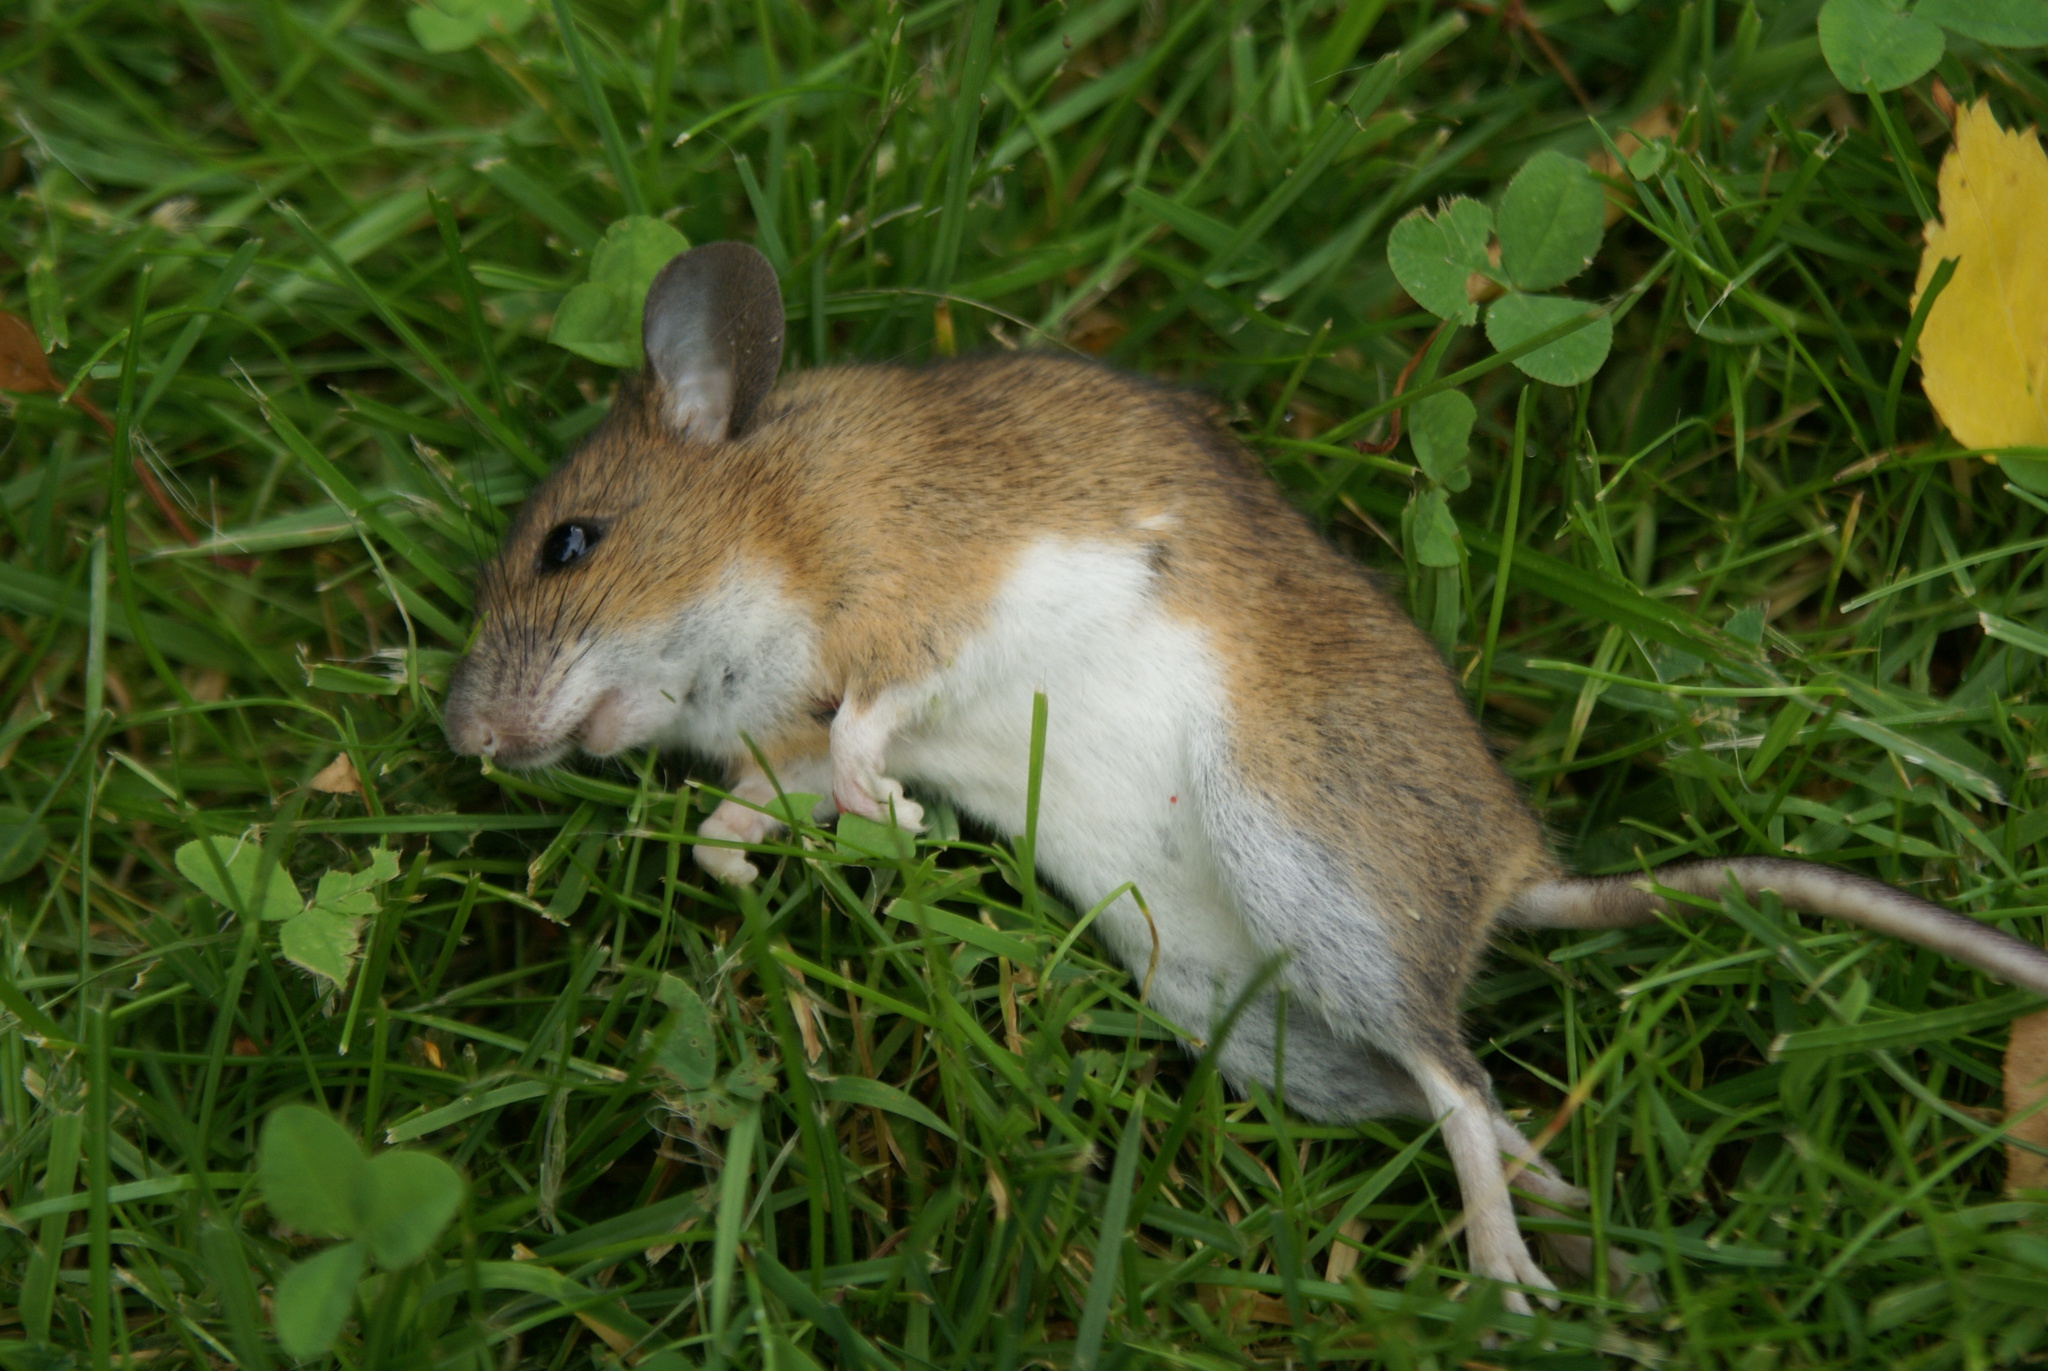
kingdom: Animalia
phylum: Chordata
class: Mammalia
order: Rodentia
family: Muridae
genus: Apodemus
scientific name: Apodemus flavicollis
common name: Yellow-necked field mouse
